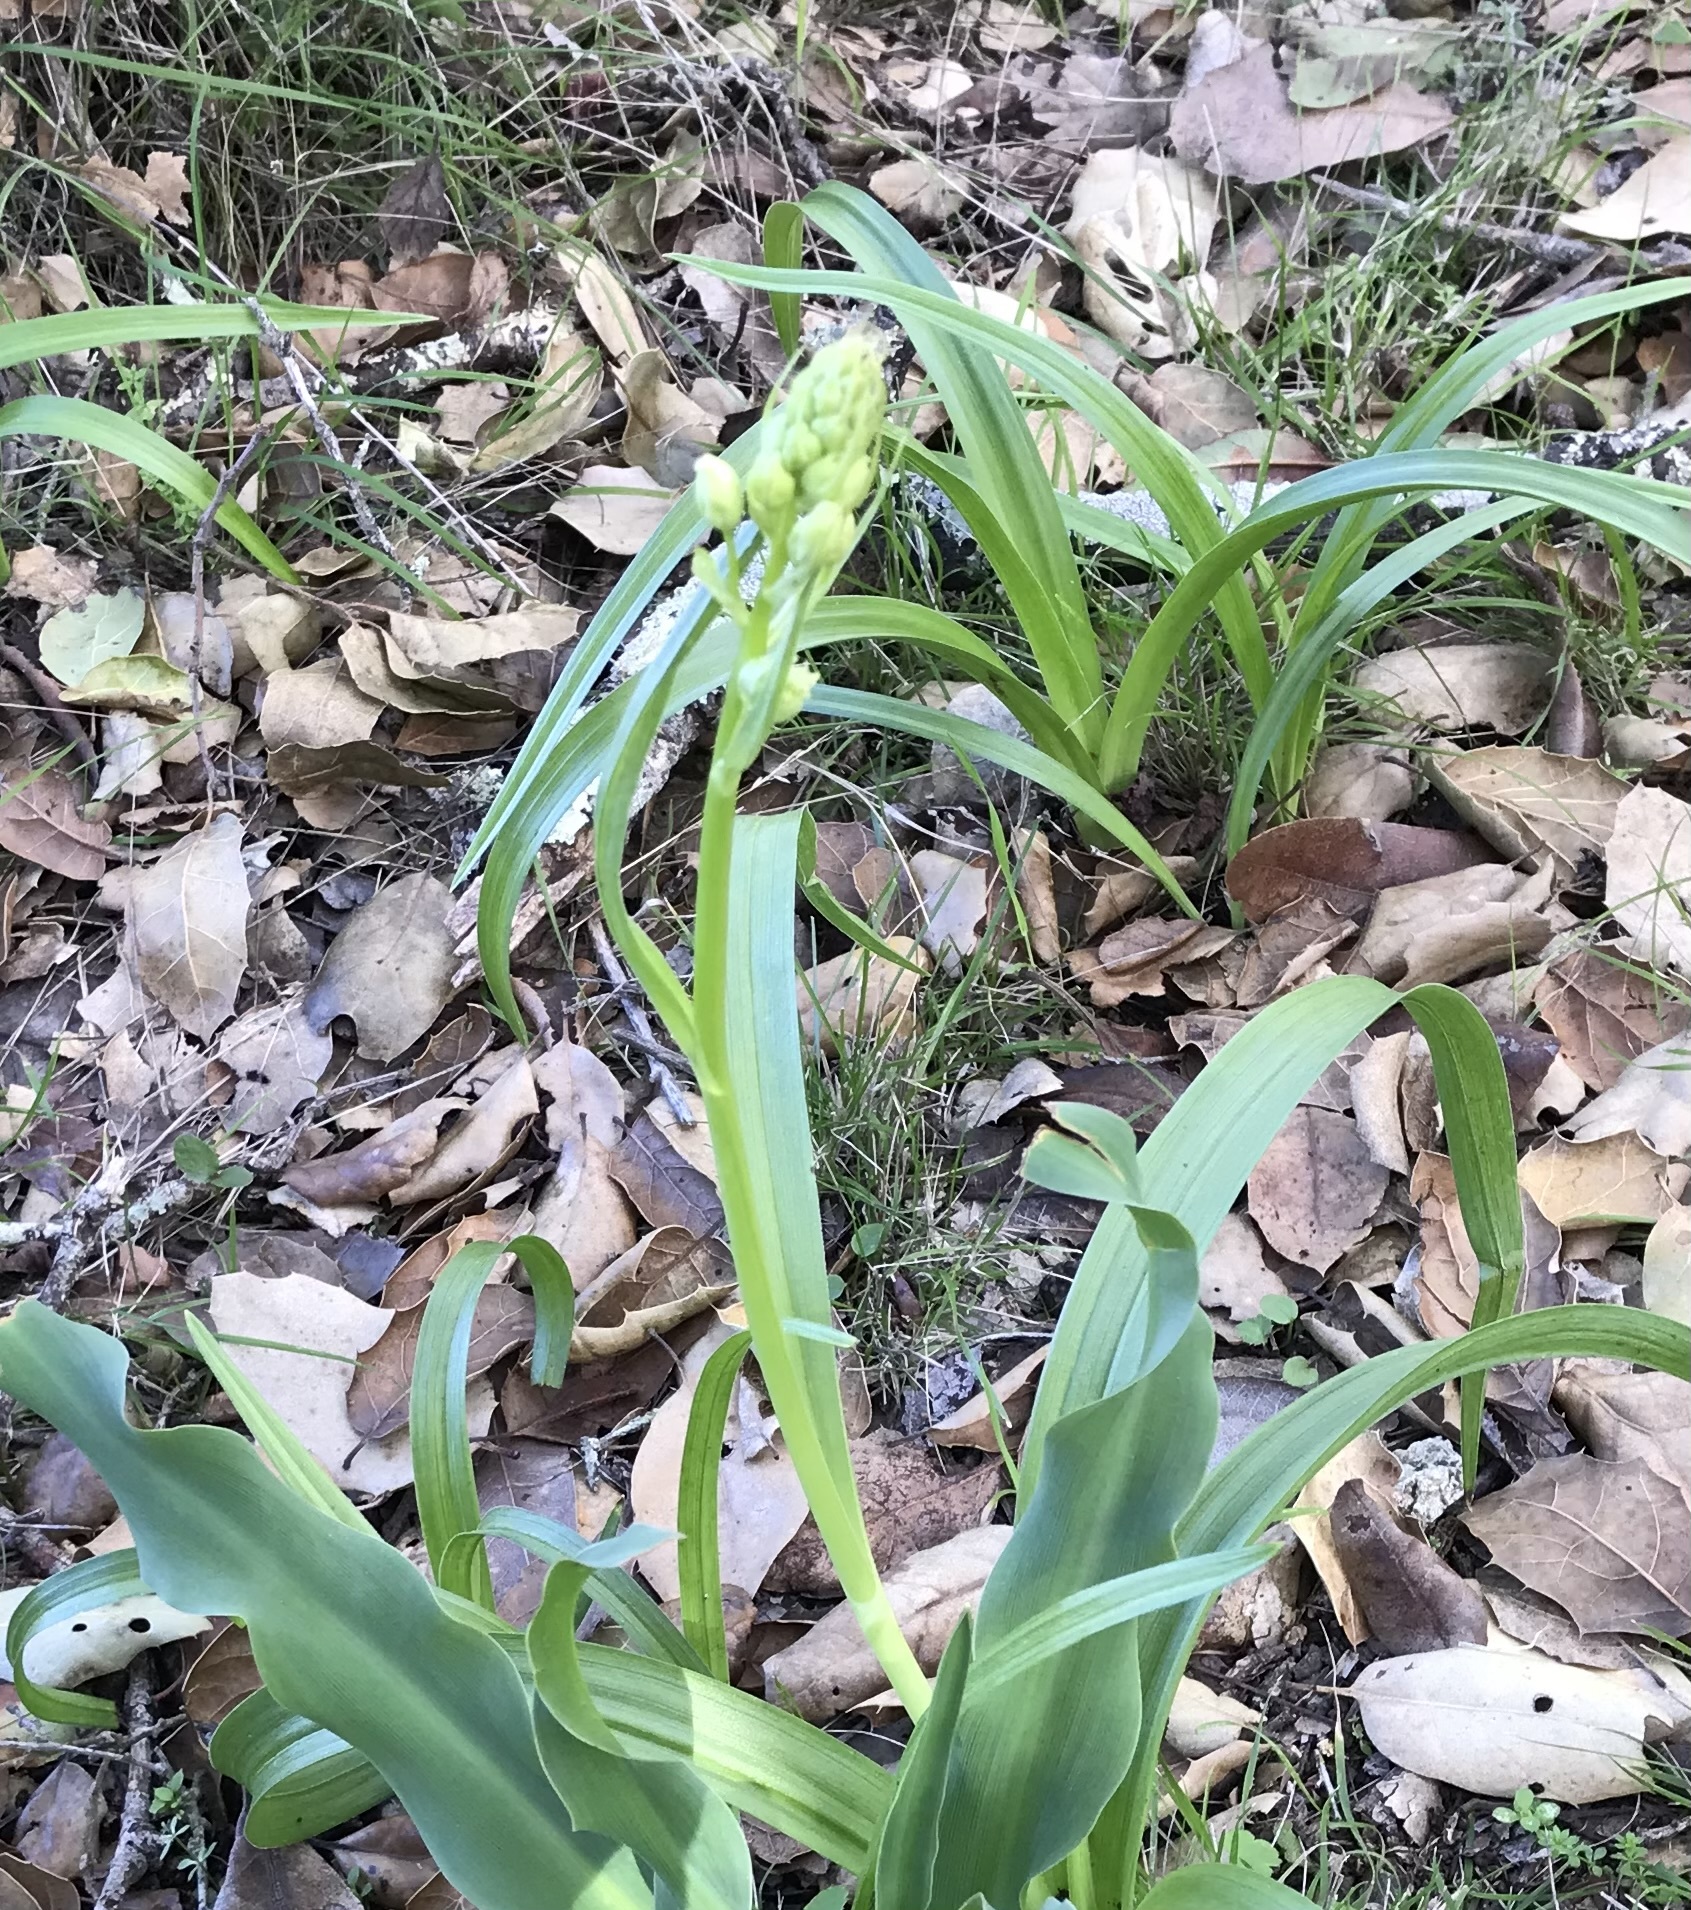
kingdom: Plantae
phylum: Tracheophyta
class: Liliopsida
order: Liliales
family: Melanthiaceae
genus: Toxicoscordion
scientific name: Toxicoscordion fremontii
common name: Fremont's death camas
